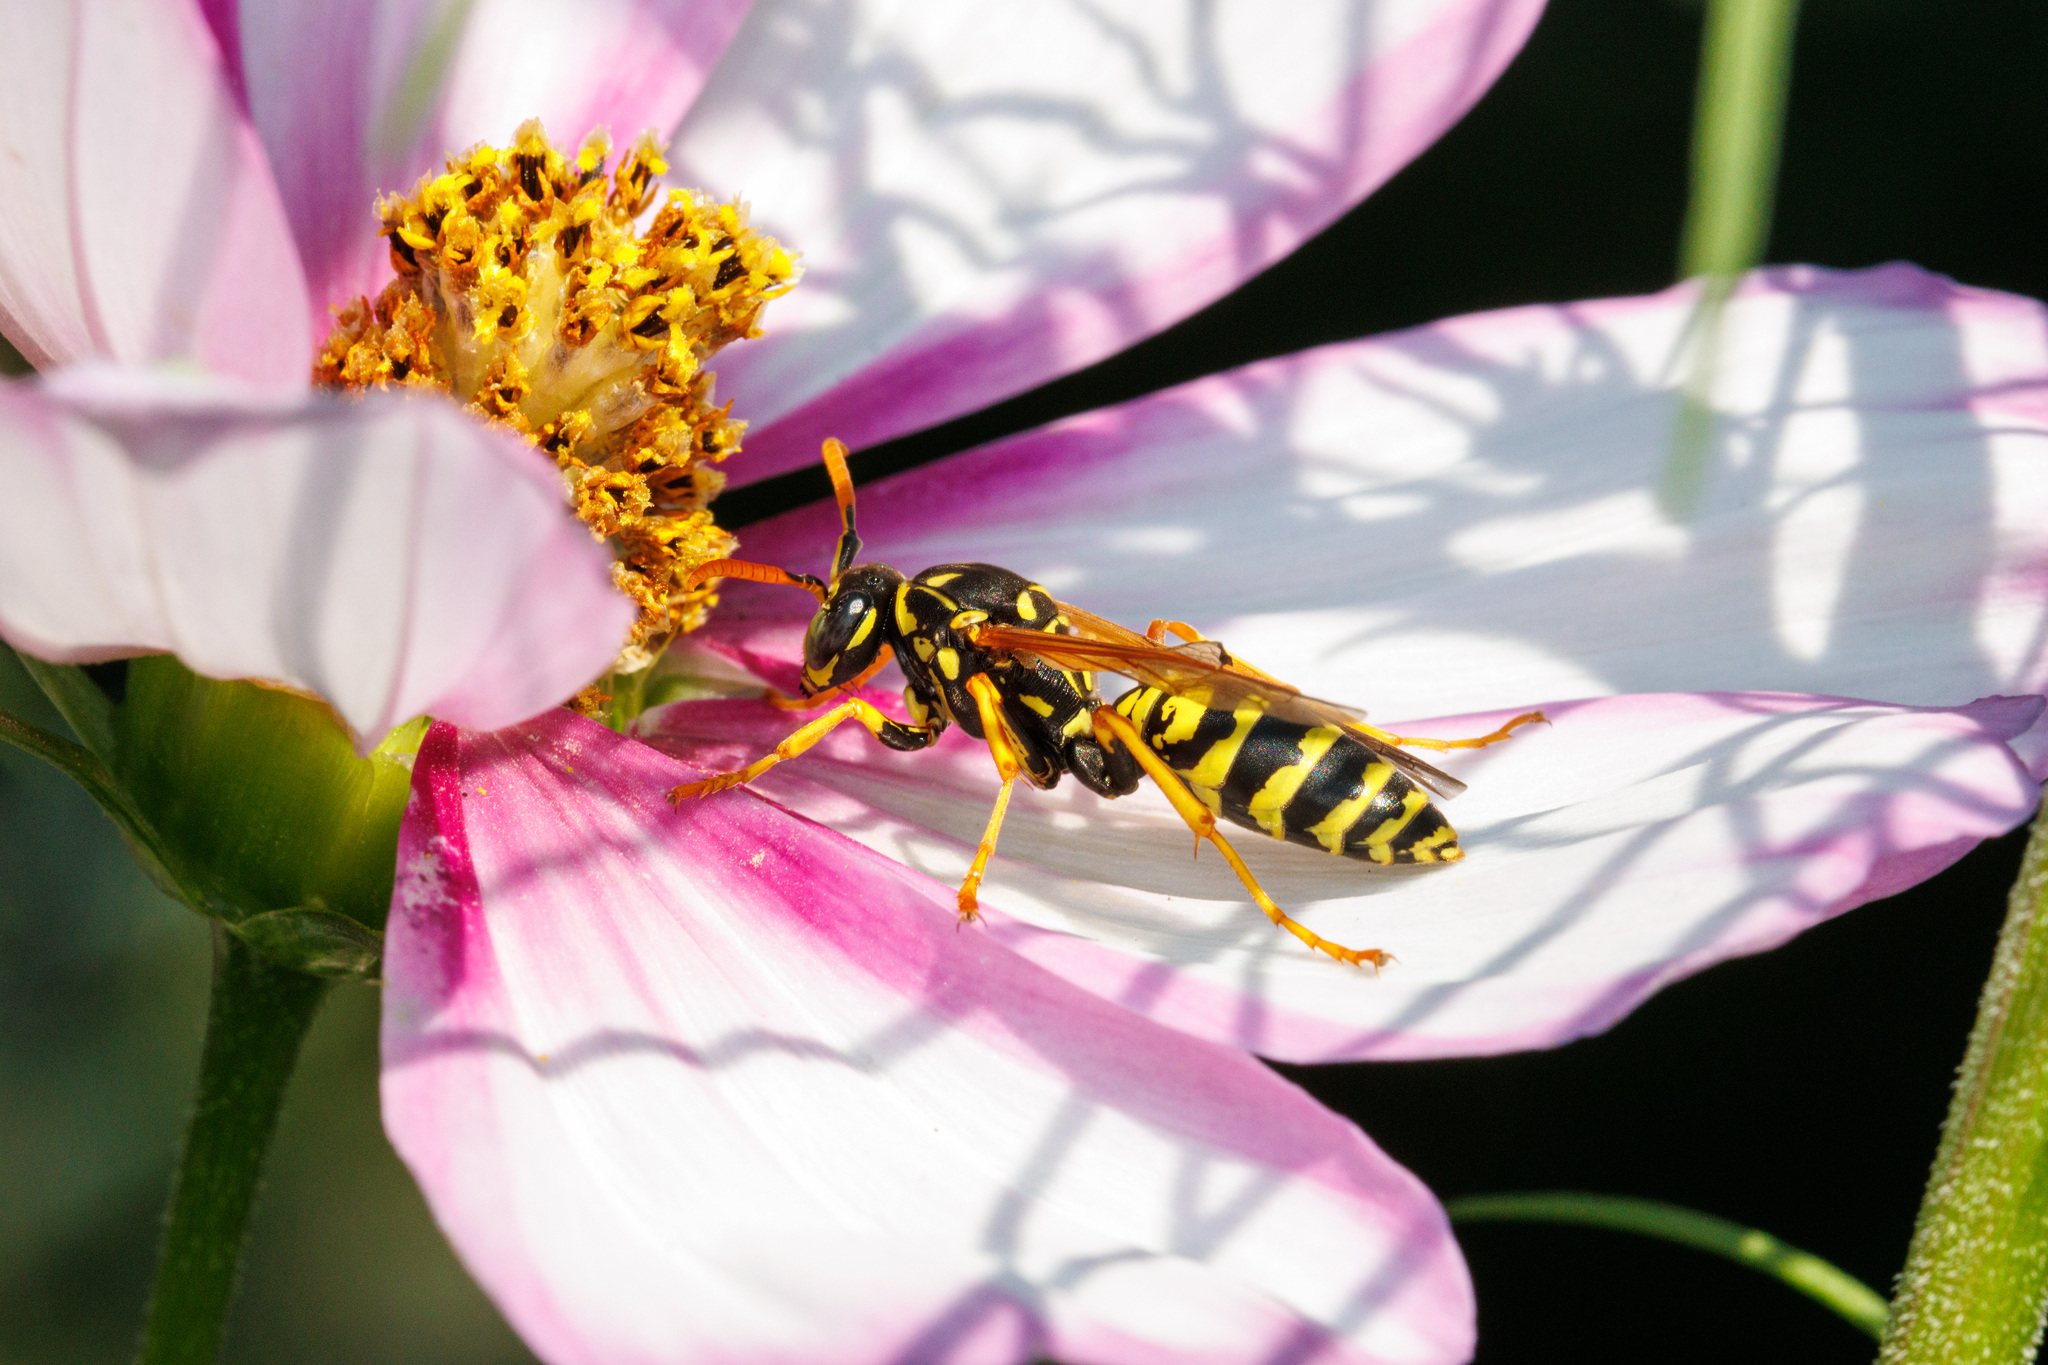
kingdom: Animalia
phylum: Arthropoda
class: Insecta
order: Hymenoptera
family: Eumenidae
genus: Polistes
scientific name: Polistes dominula
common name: Paper wasp
